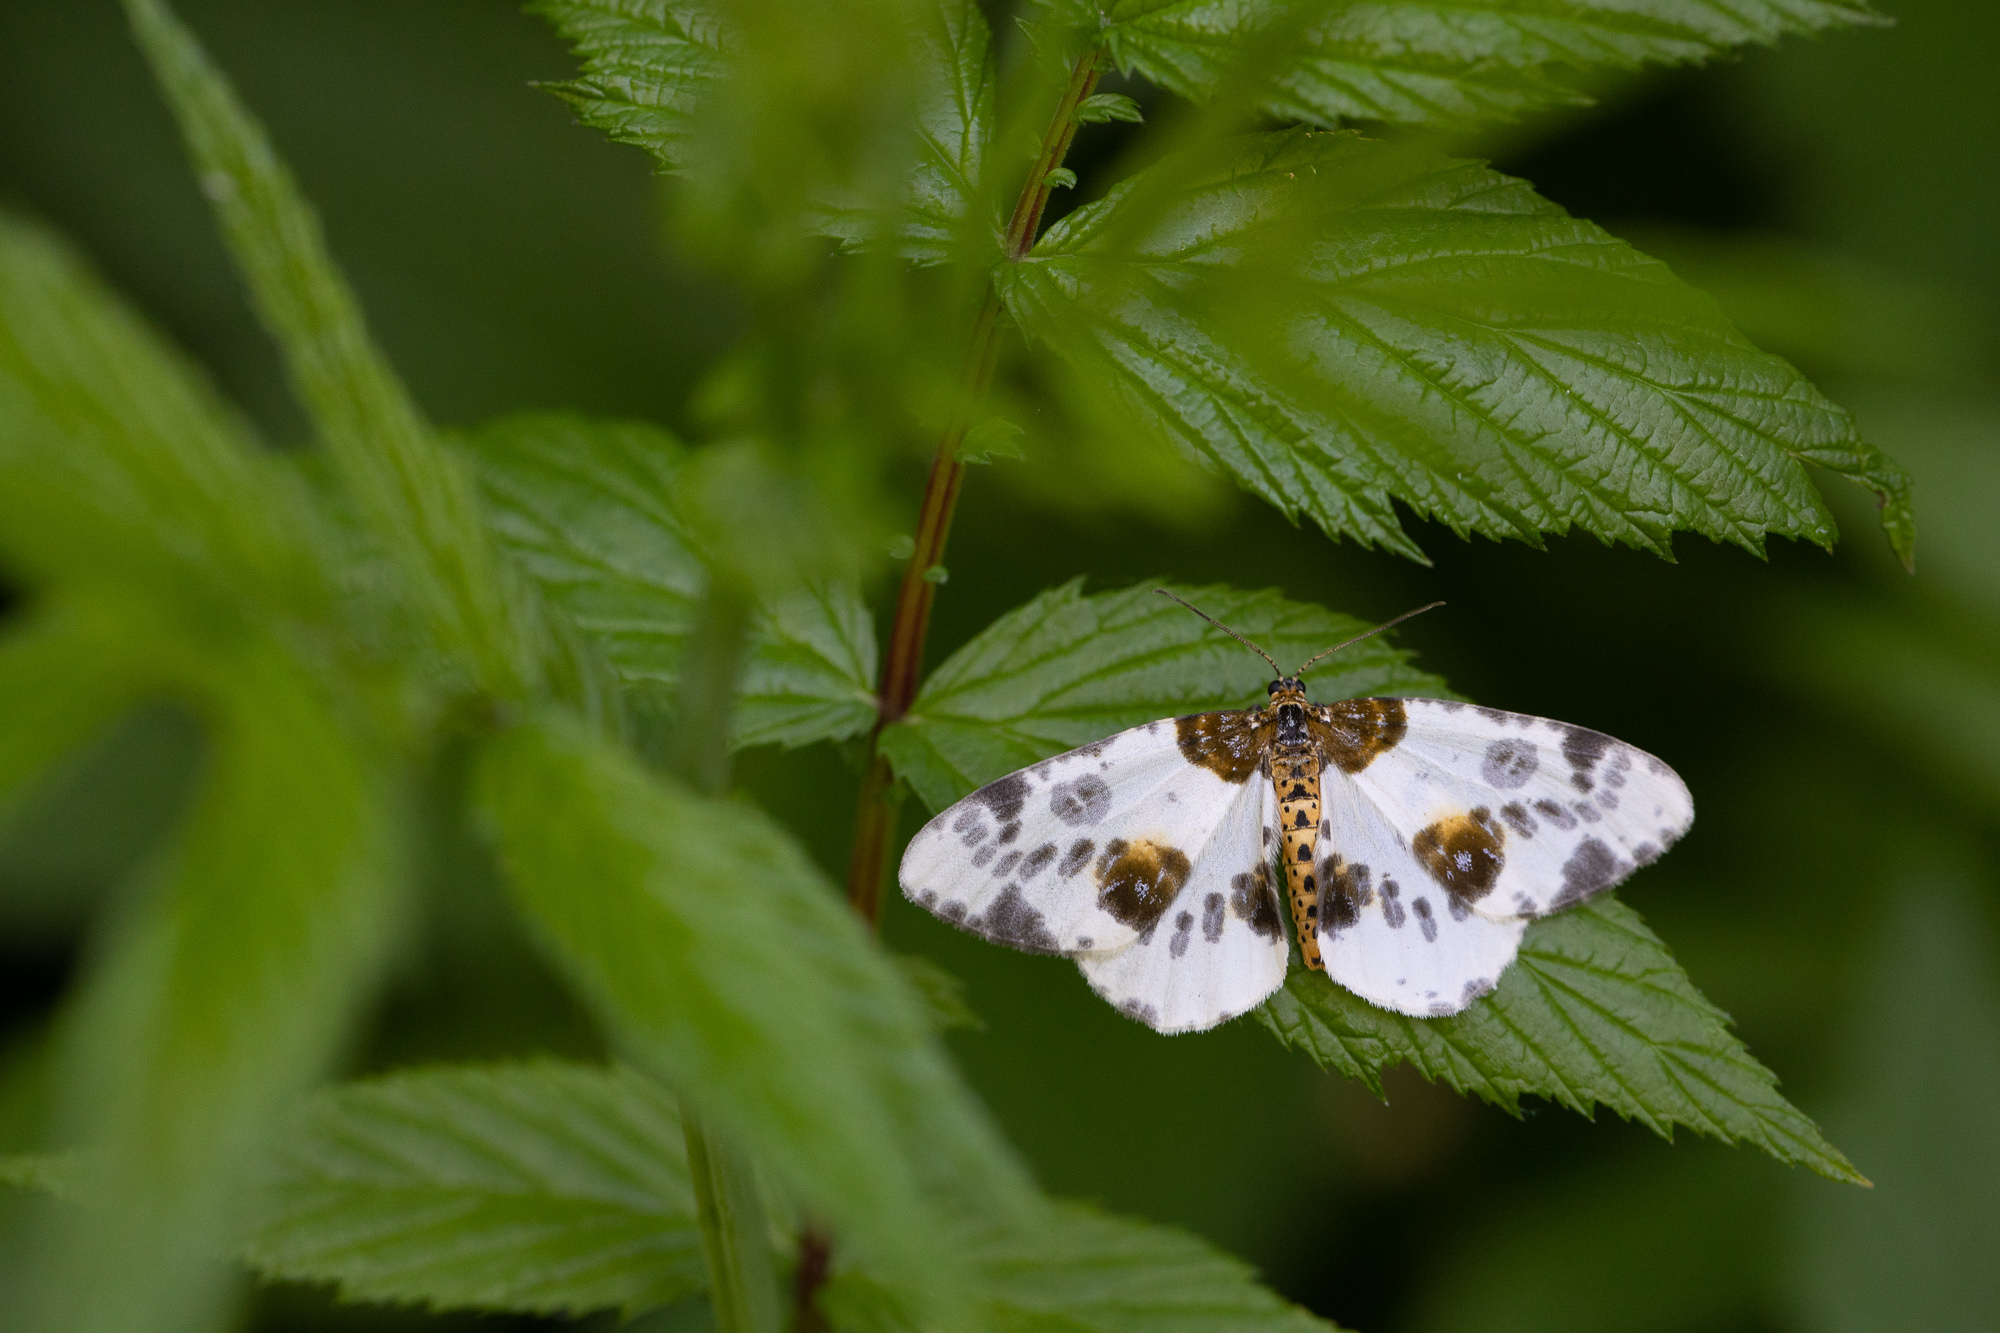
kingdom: Animalia
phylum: Arthropoda
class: Insecta
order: Lepidoptera
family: Geometridae
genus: Abraxas
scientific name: Abraxas sylvata
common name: Clouded magpie
